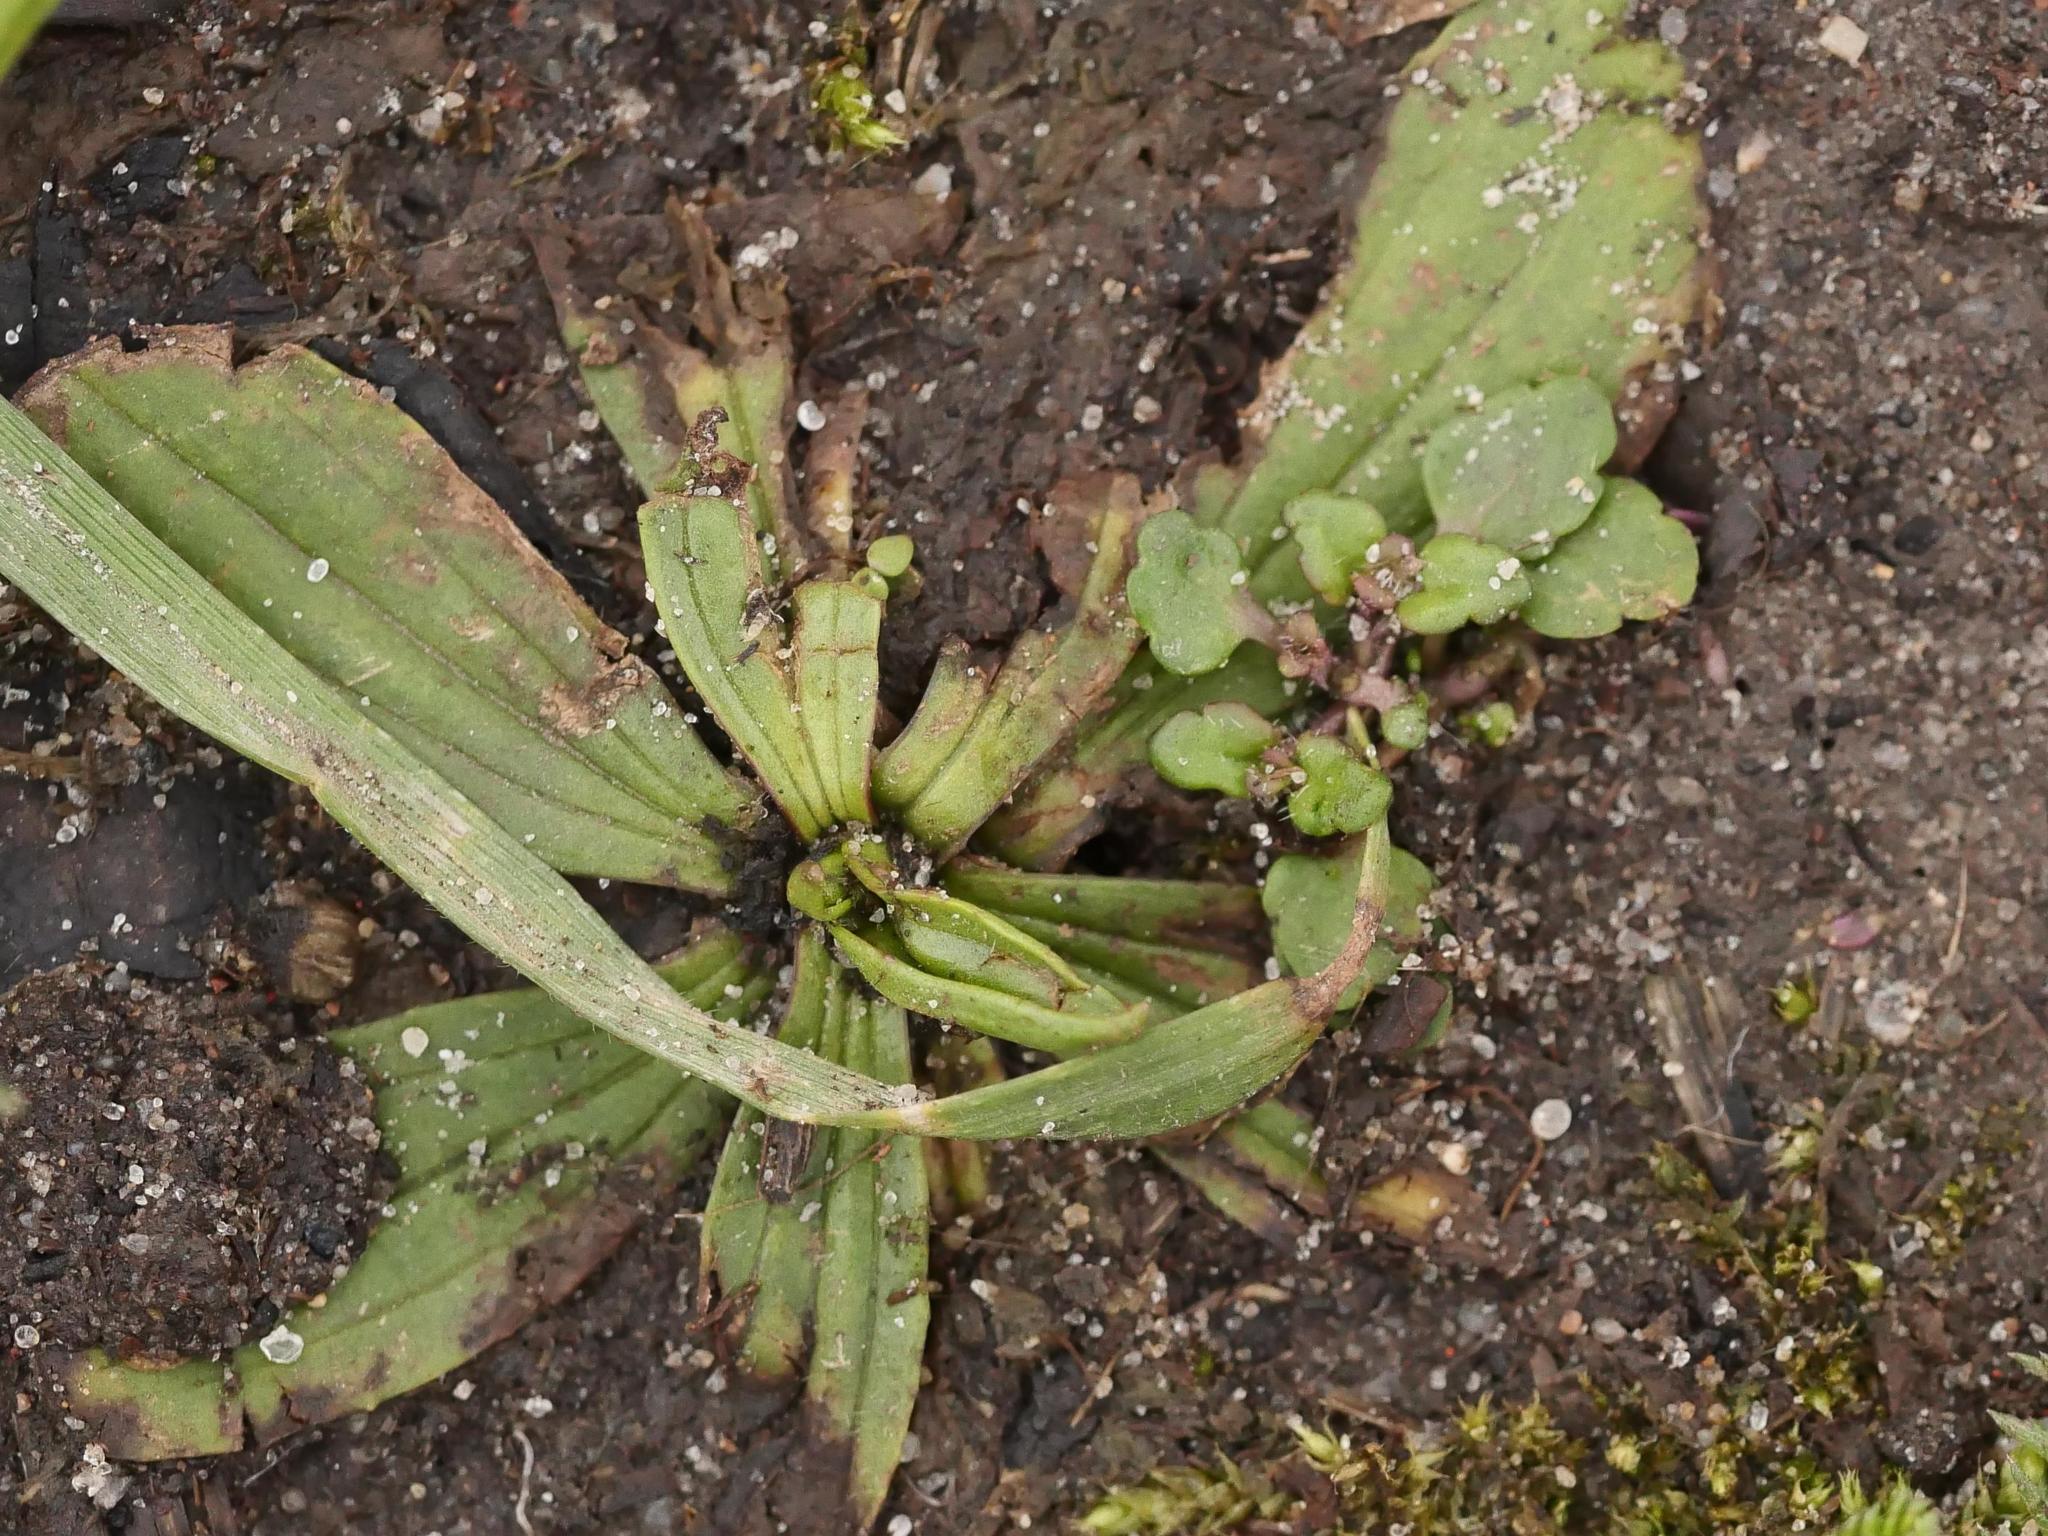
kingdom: Plantae
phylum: Tracheophyta
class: Magnoliopsida
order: Lamiales
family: Plantaginaceae
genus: Plantago
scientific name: Plantago major
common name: Common plantain
